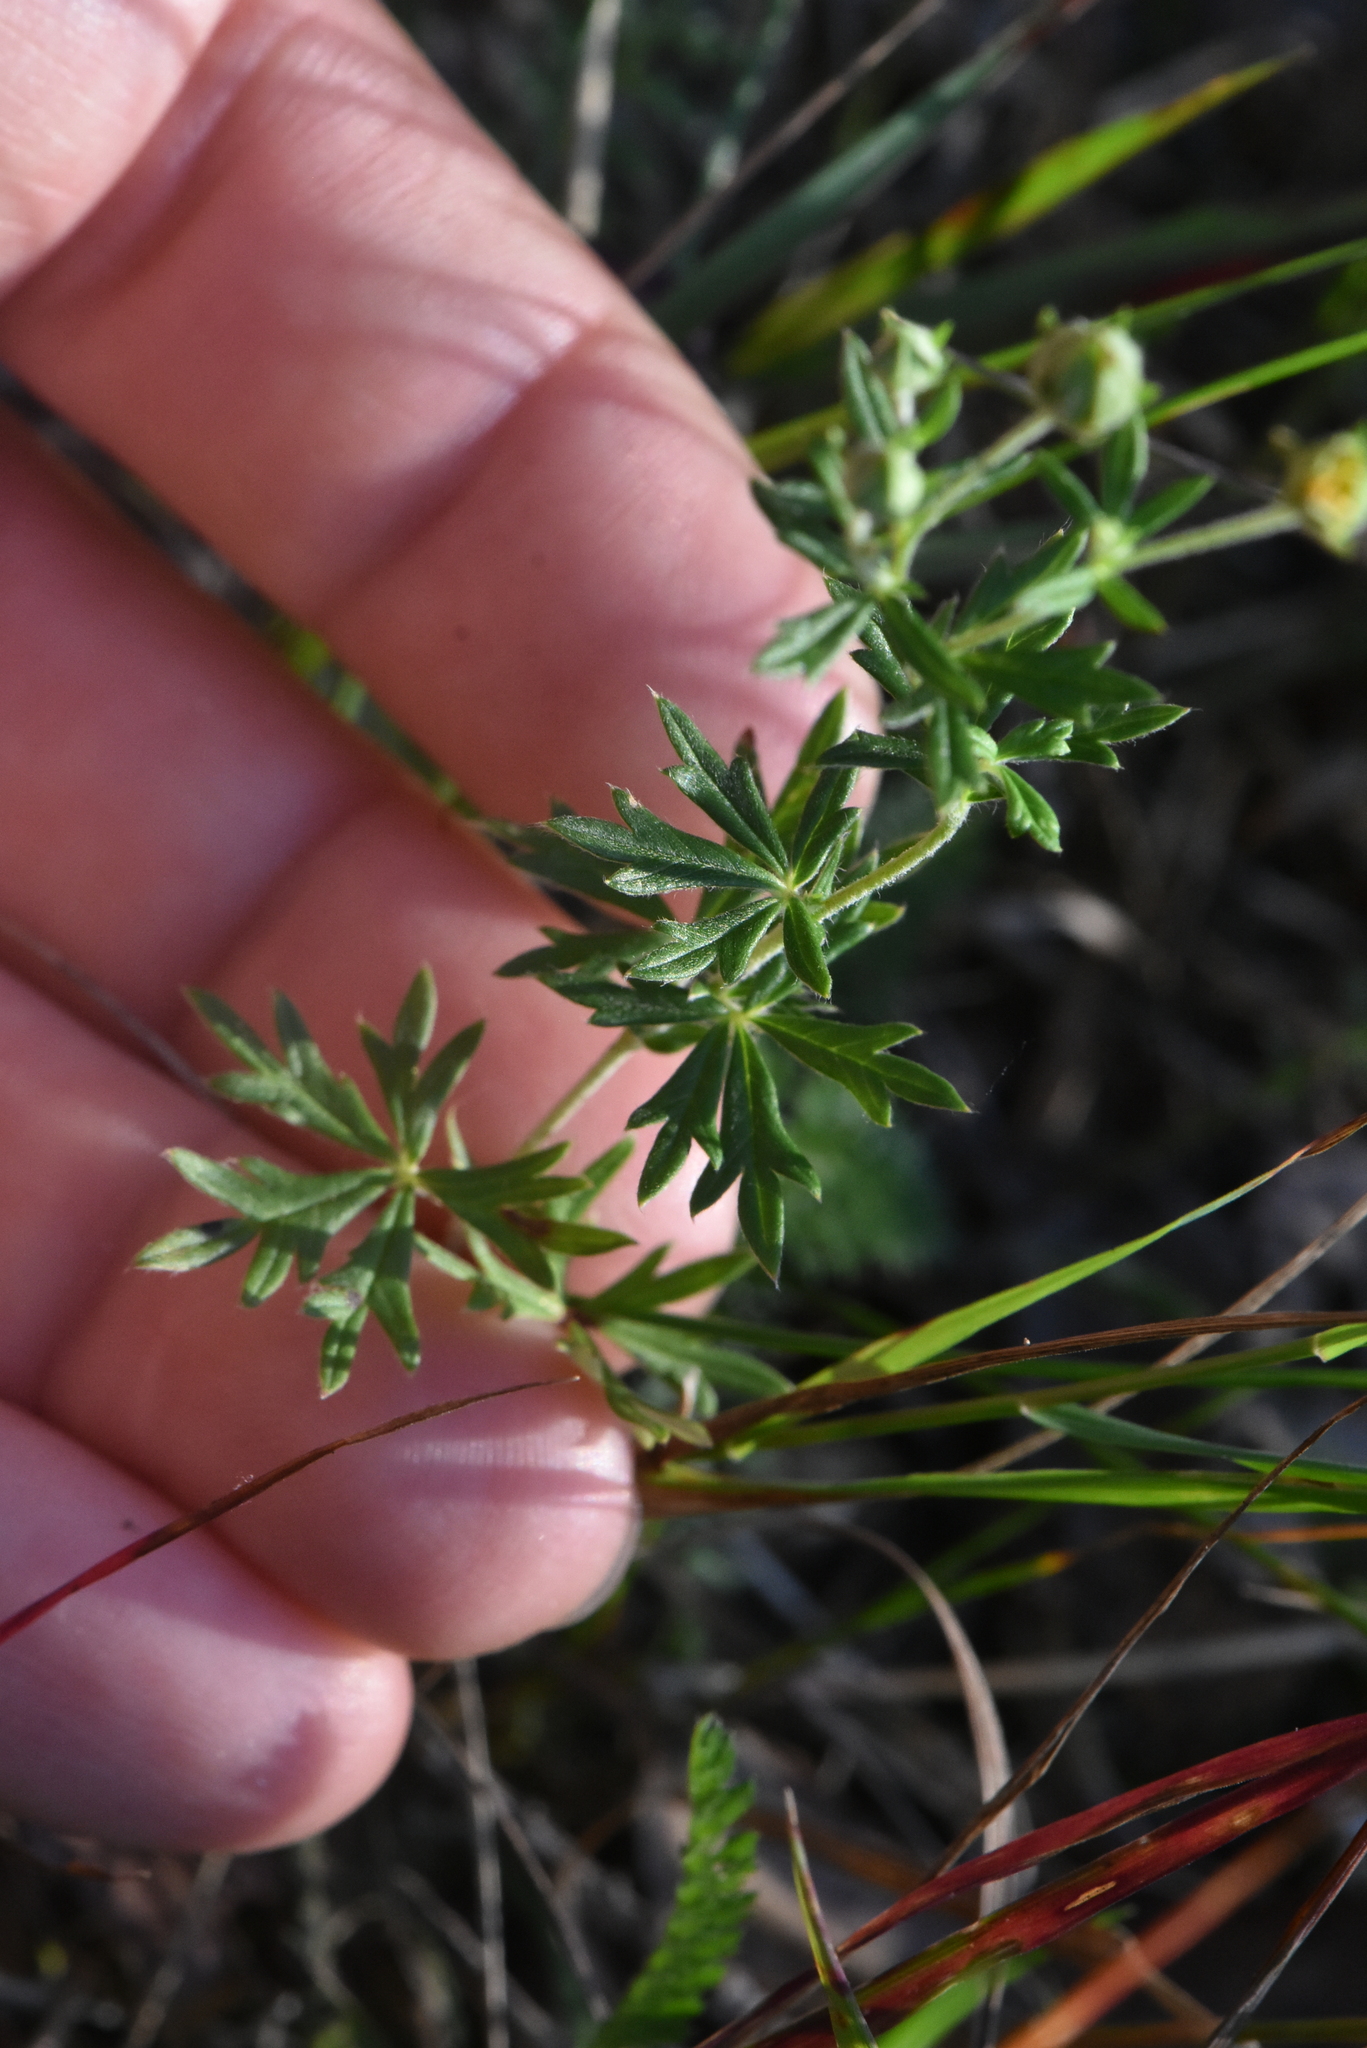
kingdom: Plantae
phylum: Tracheophyta
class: Magnoliopsida
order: Rosales
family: Rosaceae
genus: Potentilla
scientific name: Potentilla argentea
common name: Hoary cinquefoil
